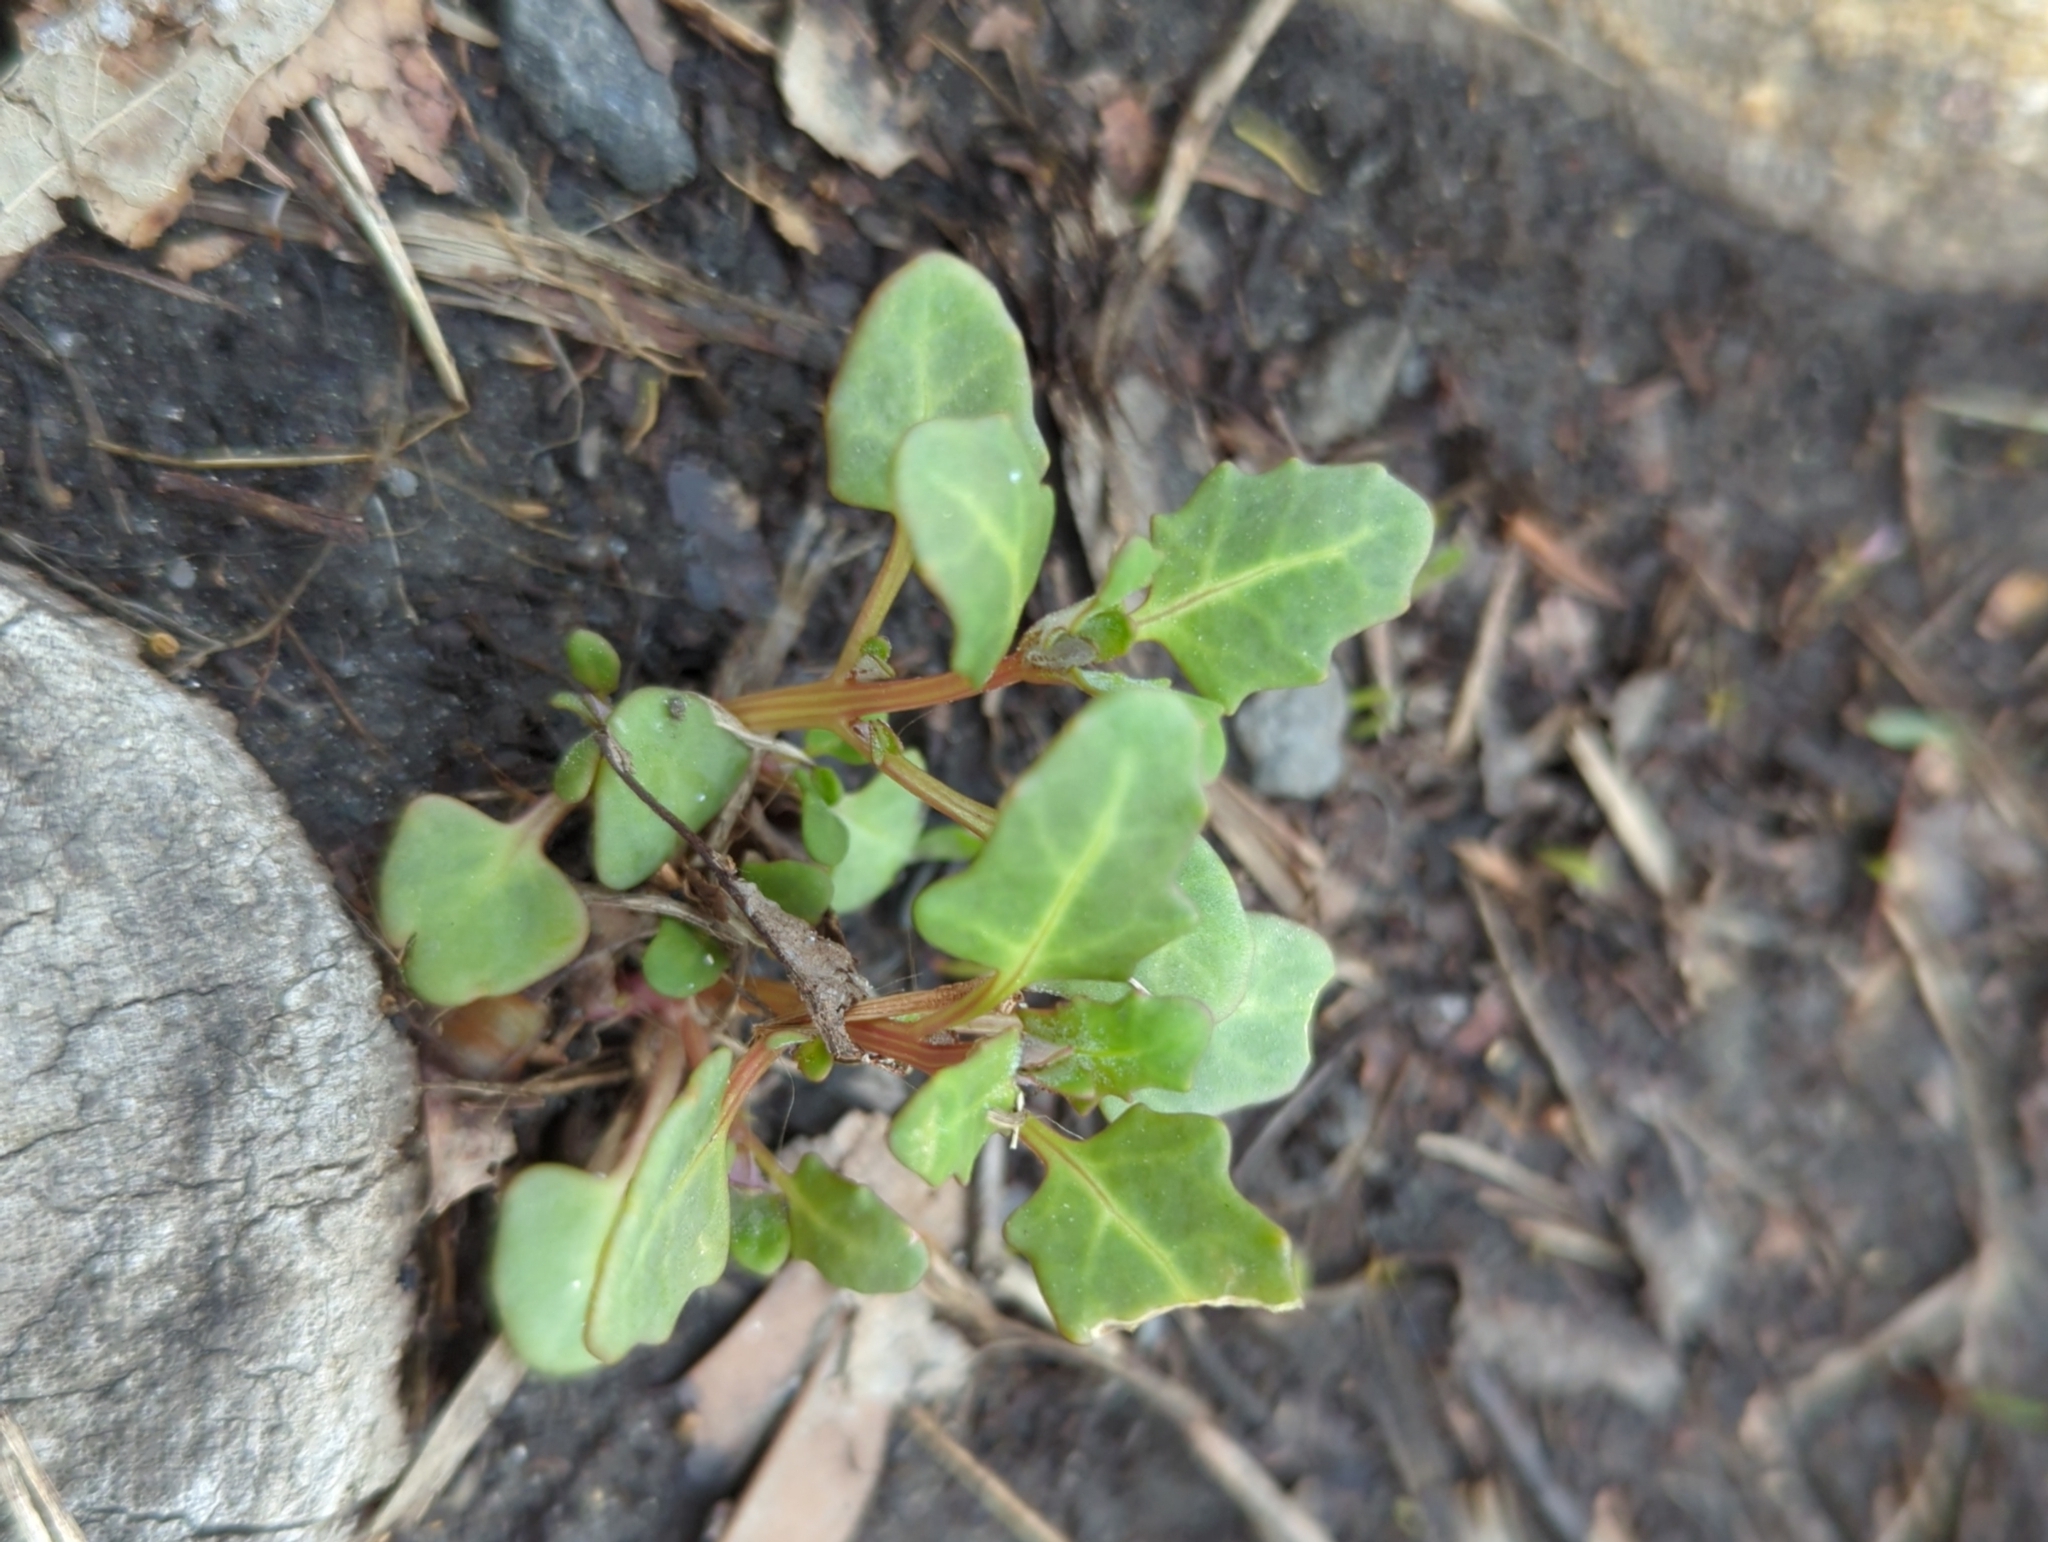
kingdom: Plantae
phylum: Tracheophyta
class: Magnoliopsida
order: Caryophyllales
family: Amaranthaceae
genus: Oxybasis
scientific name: Oxybasis glauca
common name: Glaucous goosefoot
